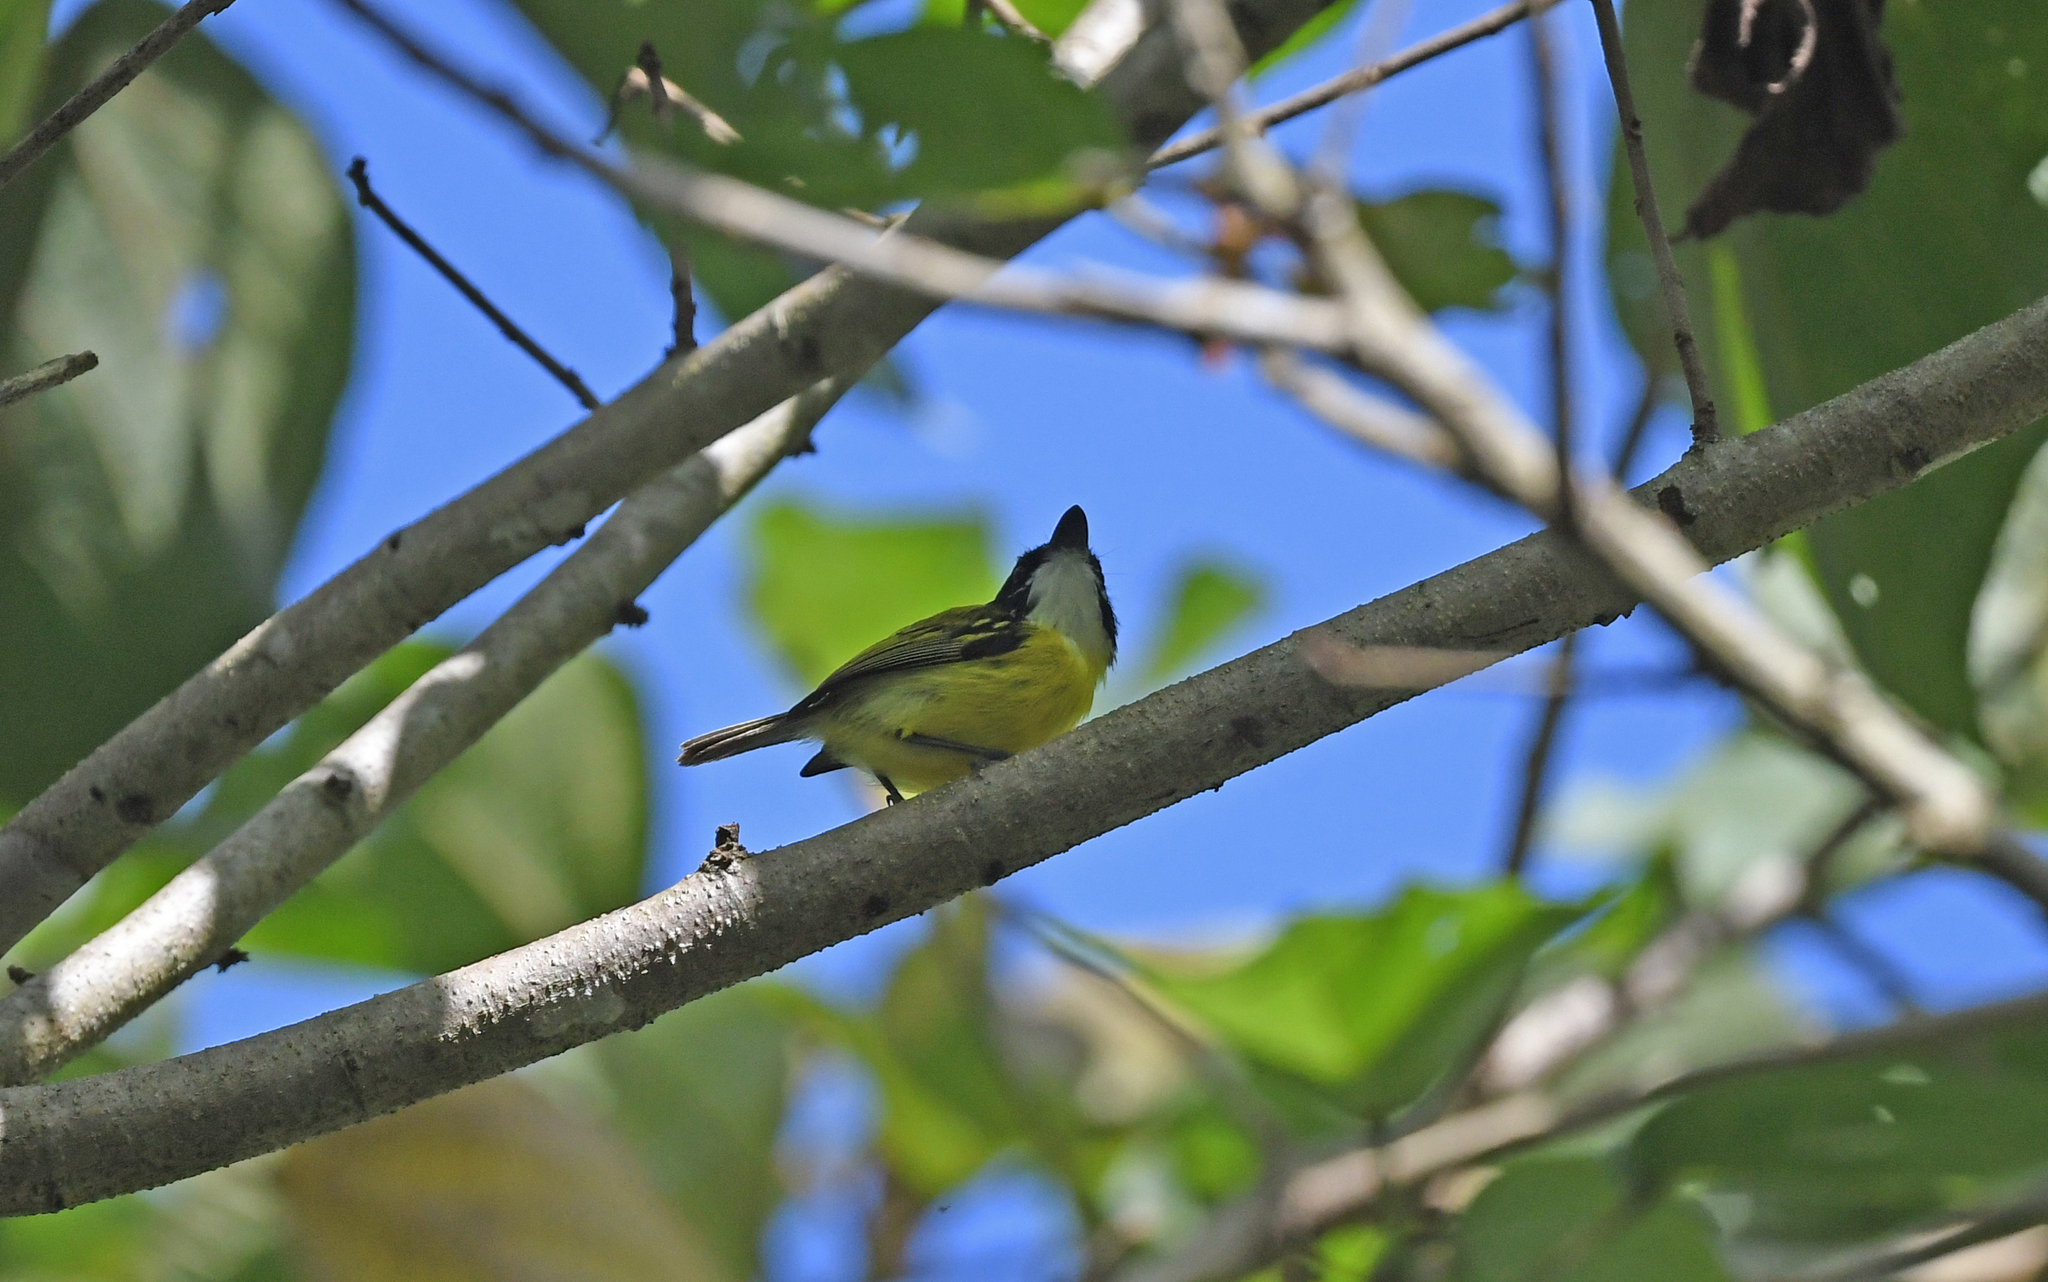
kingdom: Animalia
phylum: Chordata
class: Aves
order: Passeriformes
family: Tyrannidae
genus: Todirostrum
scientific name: Todirostrum nigriceps
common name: Black-headed tody-flycatcher
